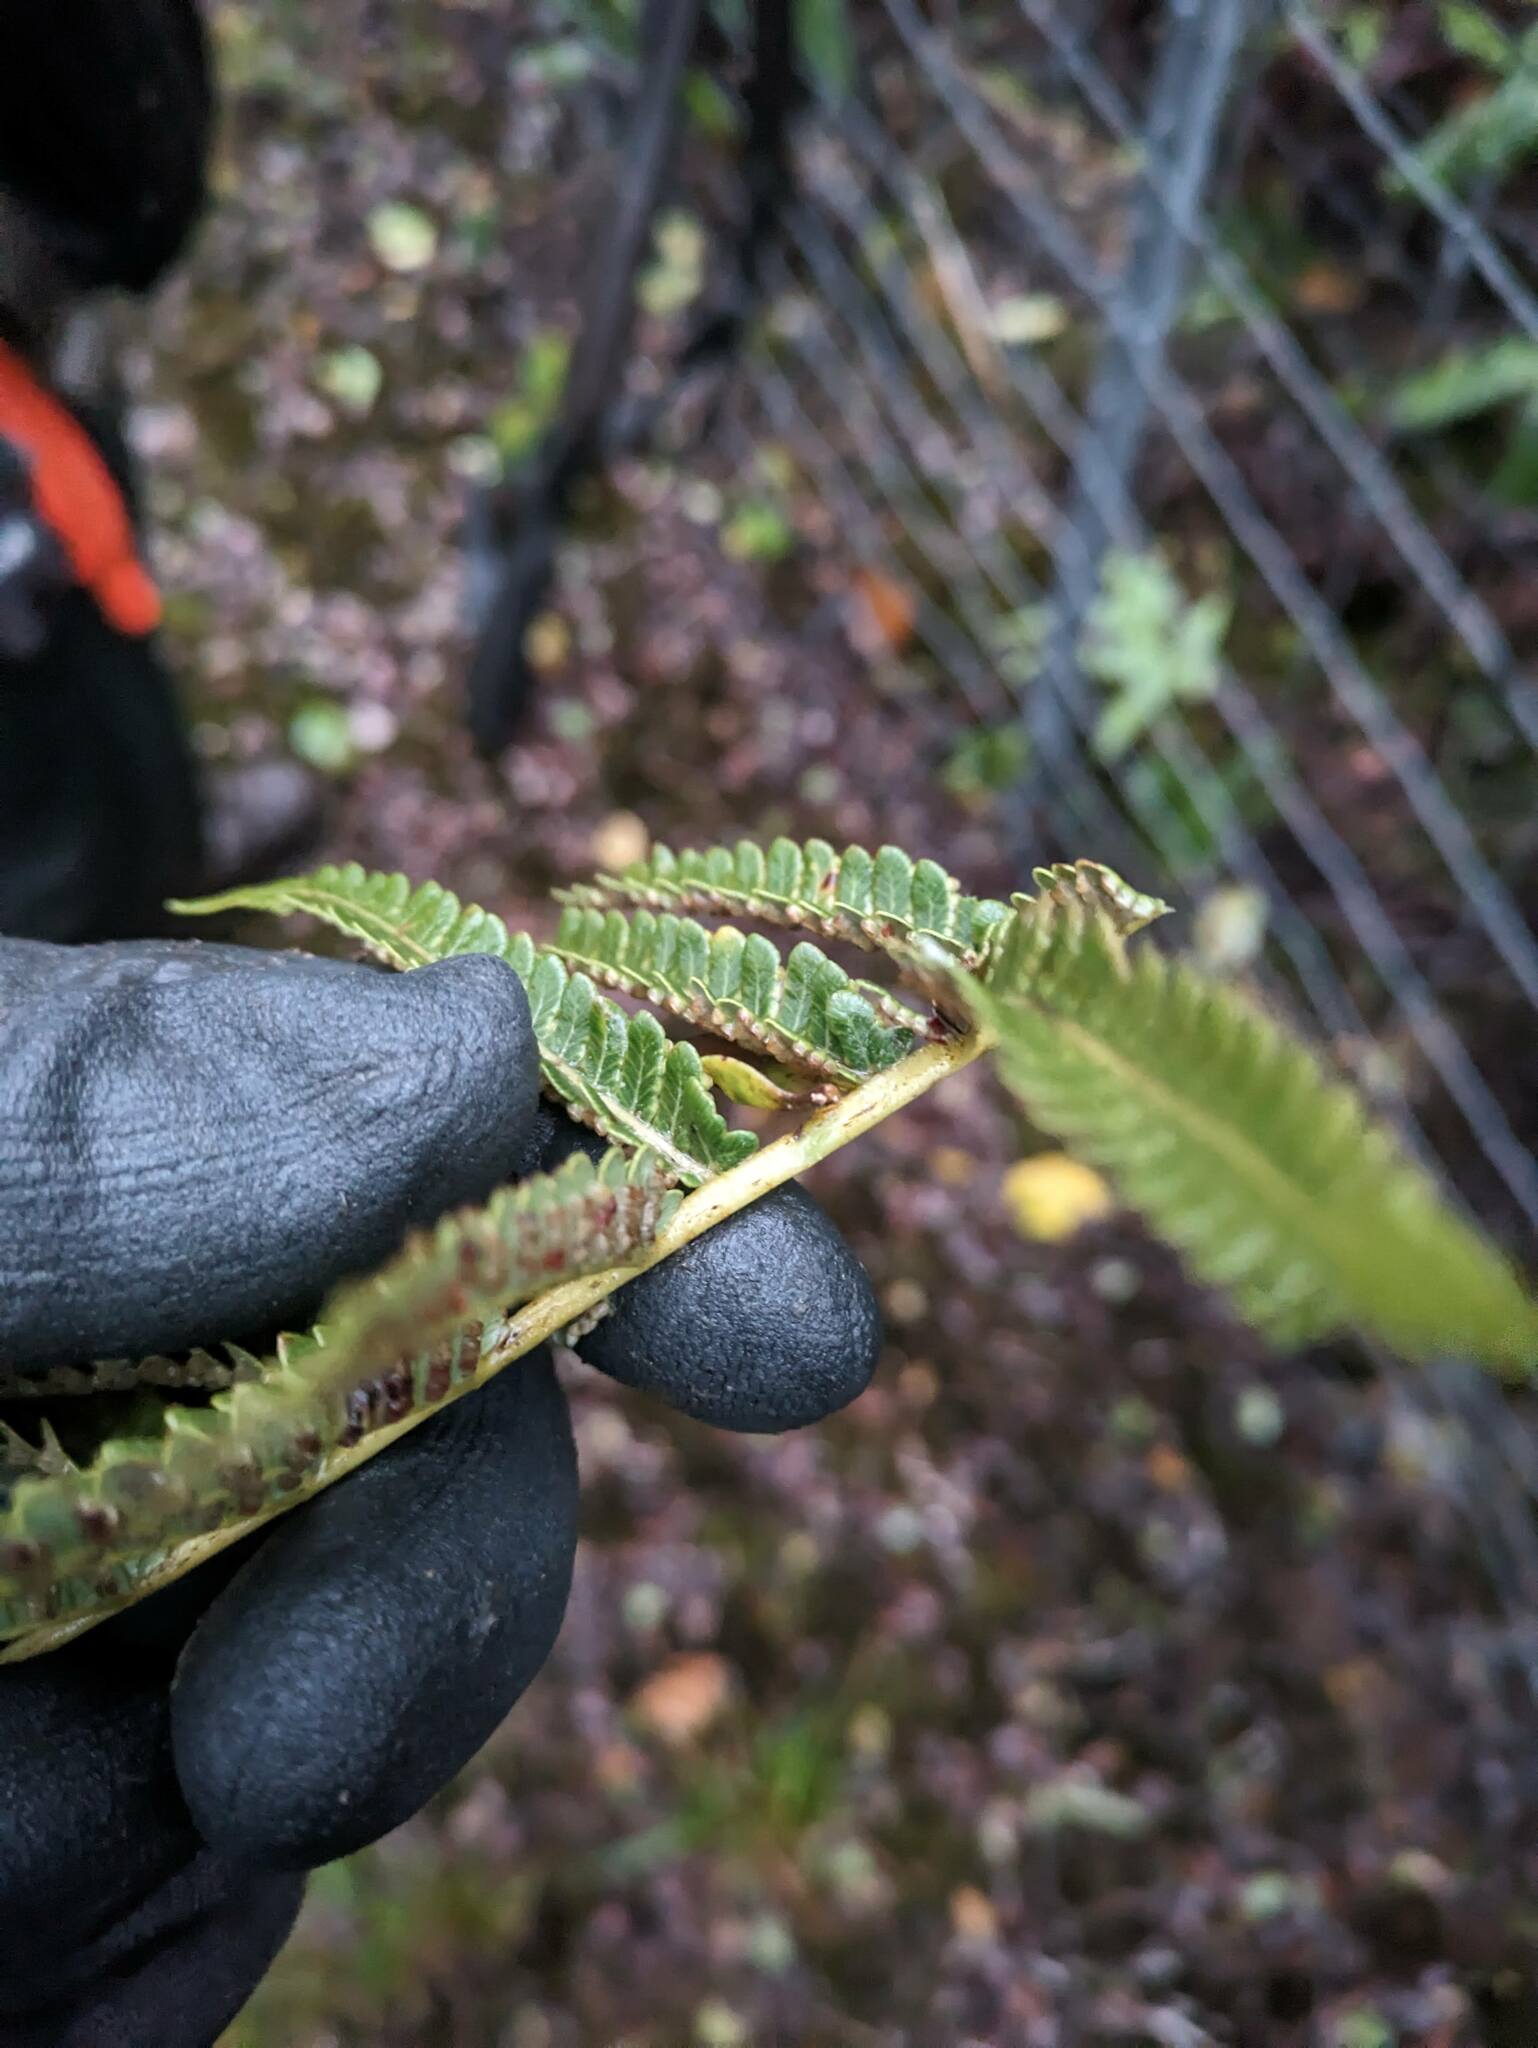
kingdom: Plantae
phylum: Tracheophyta
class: Polypodiopsida
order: Cyatheales
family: Cibotiaceae
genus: Cibotium
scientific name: Cibotium glaucum
